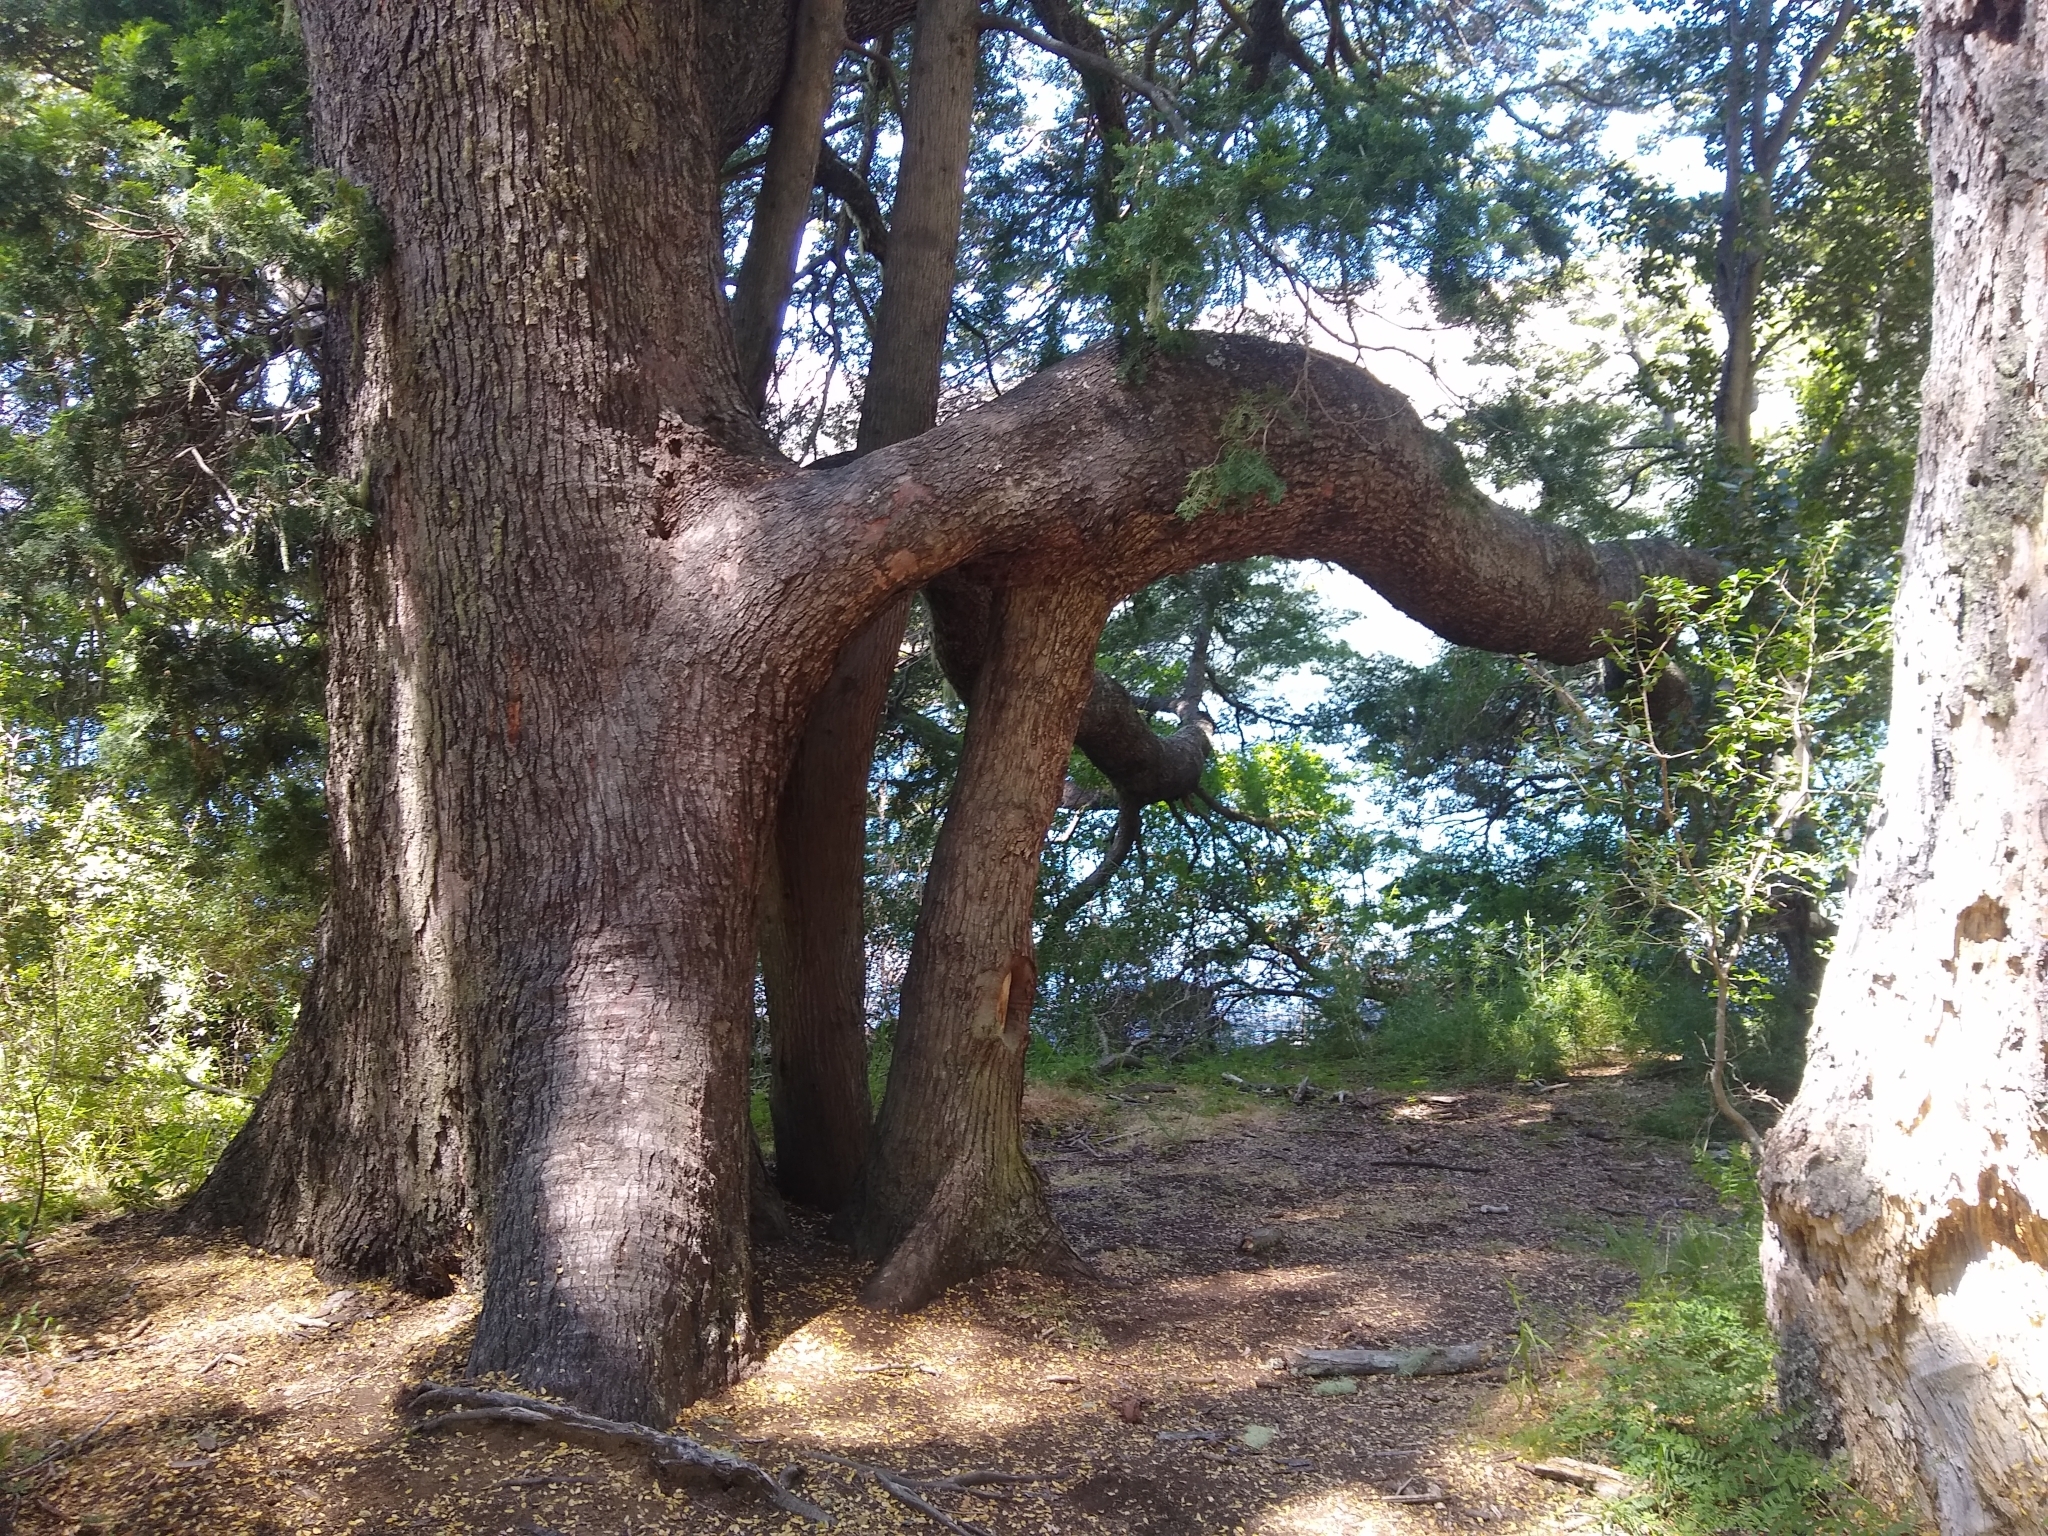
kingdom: Plantae
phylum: Tracheophyta
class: Magnoliopsida
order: Fagales
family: Nothofagaceae
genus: Nothofagus
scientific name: Nothofagus dombeyi
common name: Coigue
